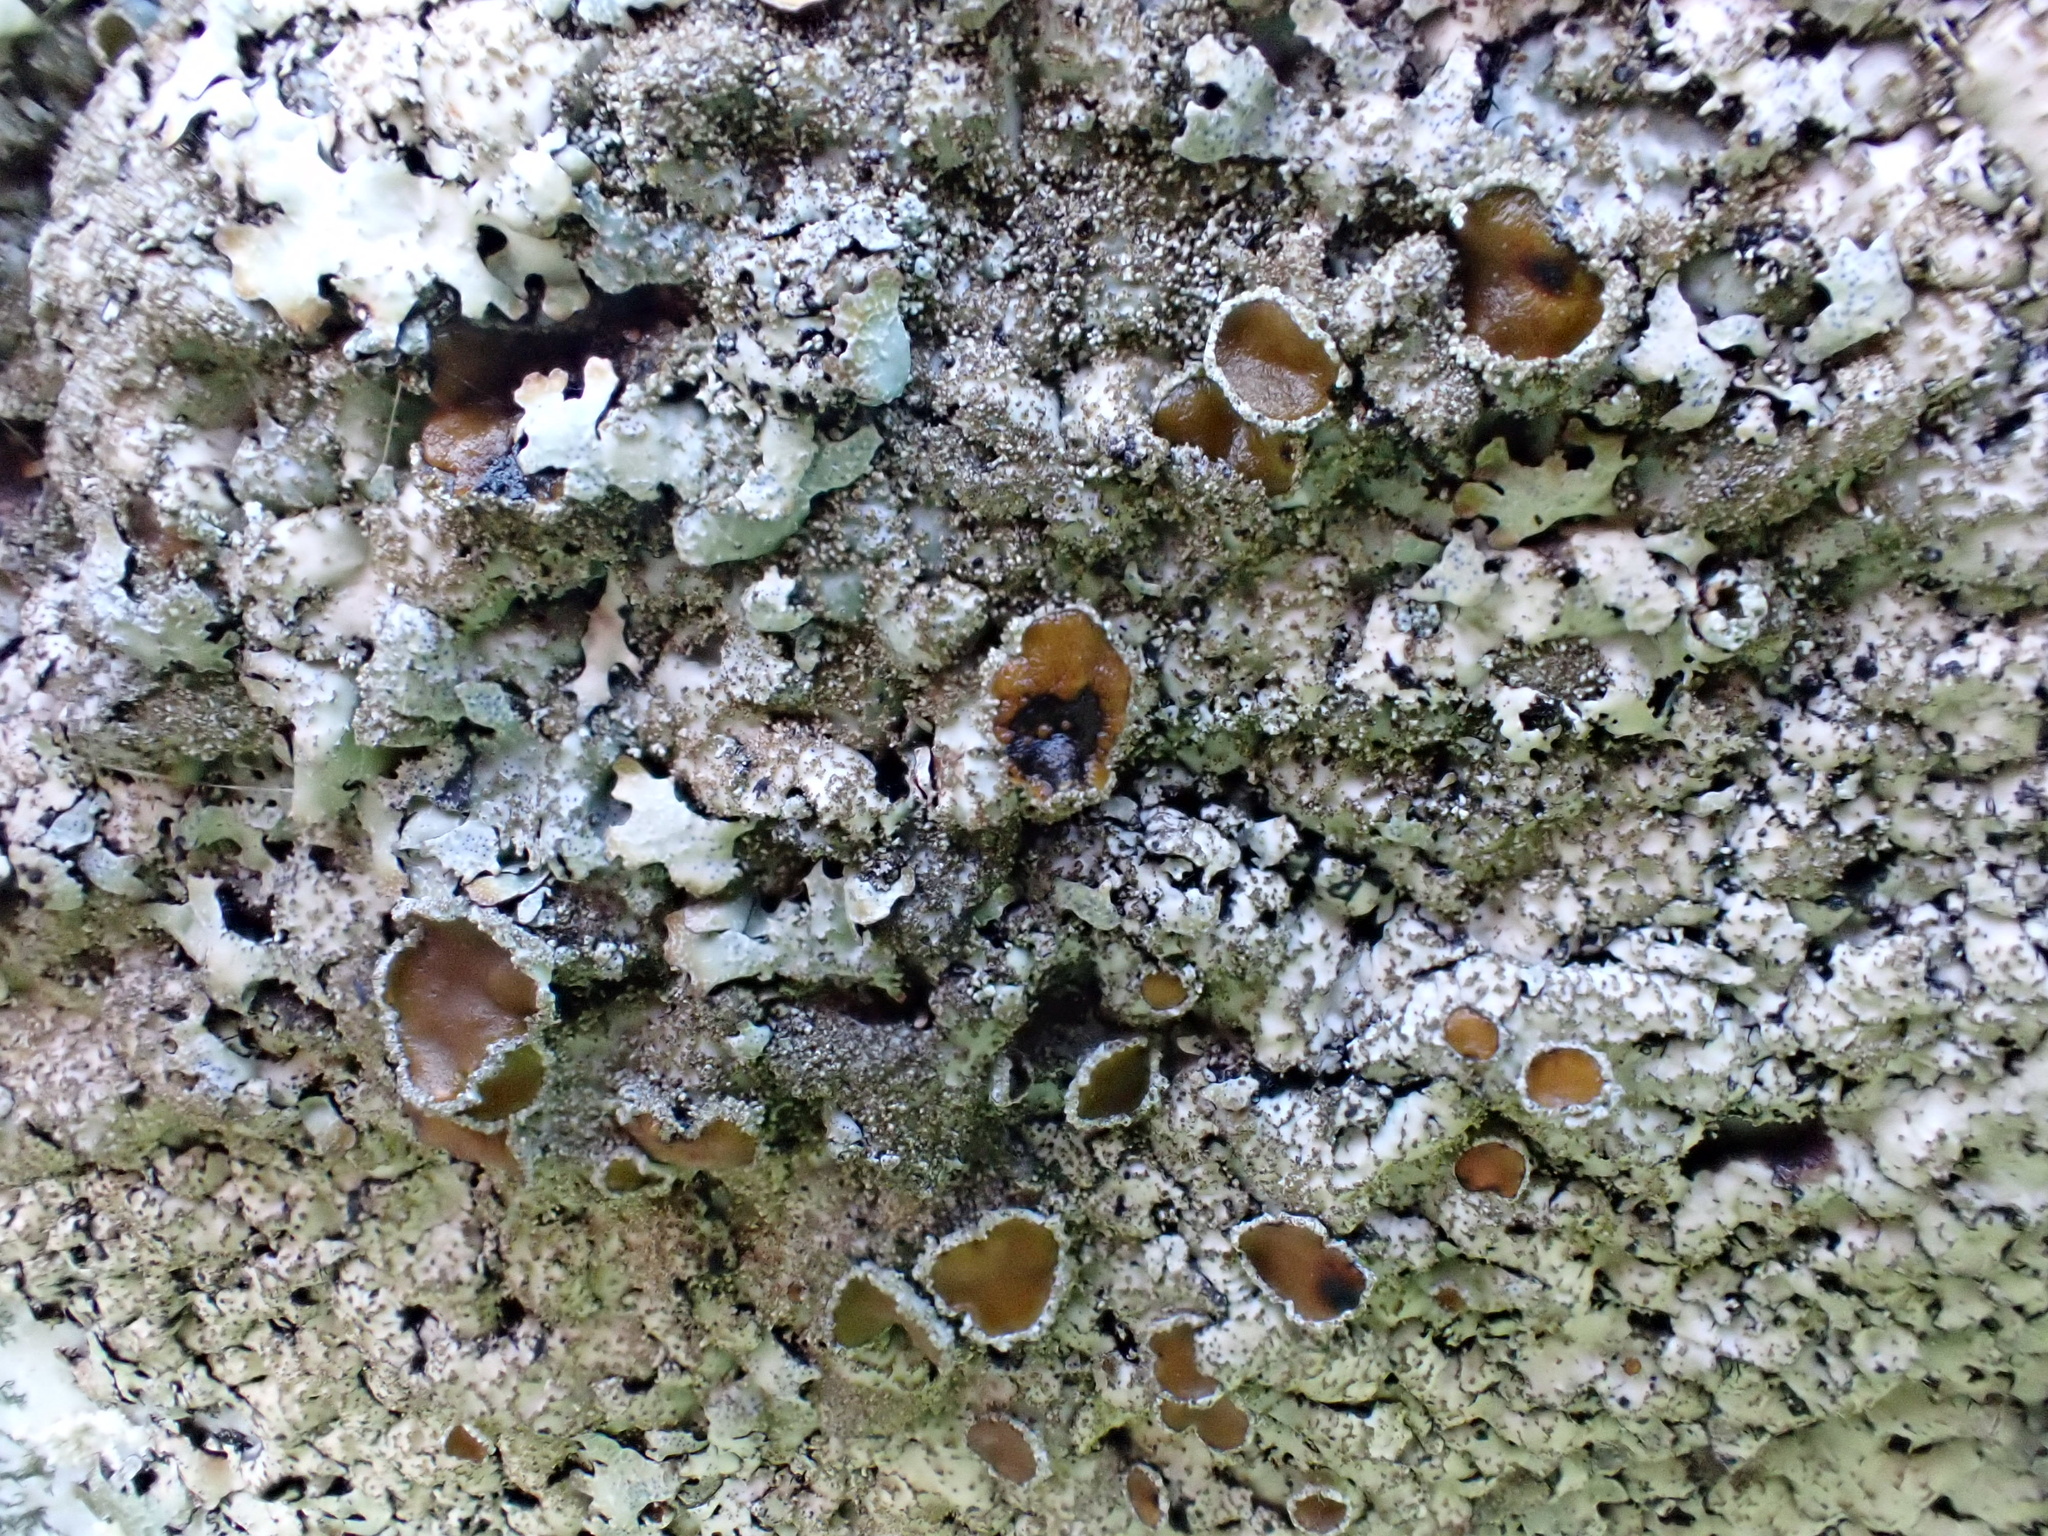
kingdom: Fungi
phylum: Ascomycota
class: Lecanoromycetes
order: Lecanorales
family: Parmeliaceae
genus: Parmelia
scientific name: Parmelia saxatilis
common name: Salted shield lichen
